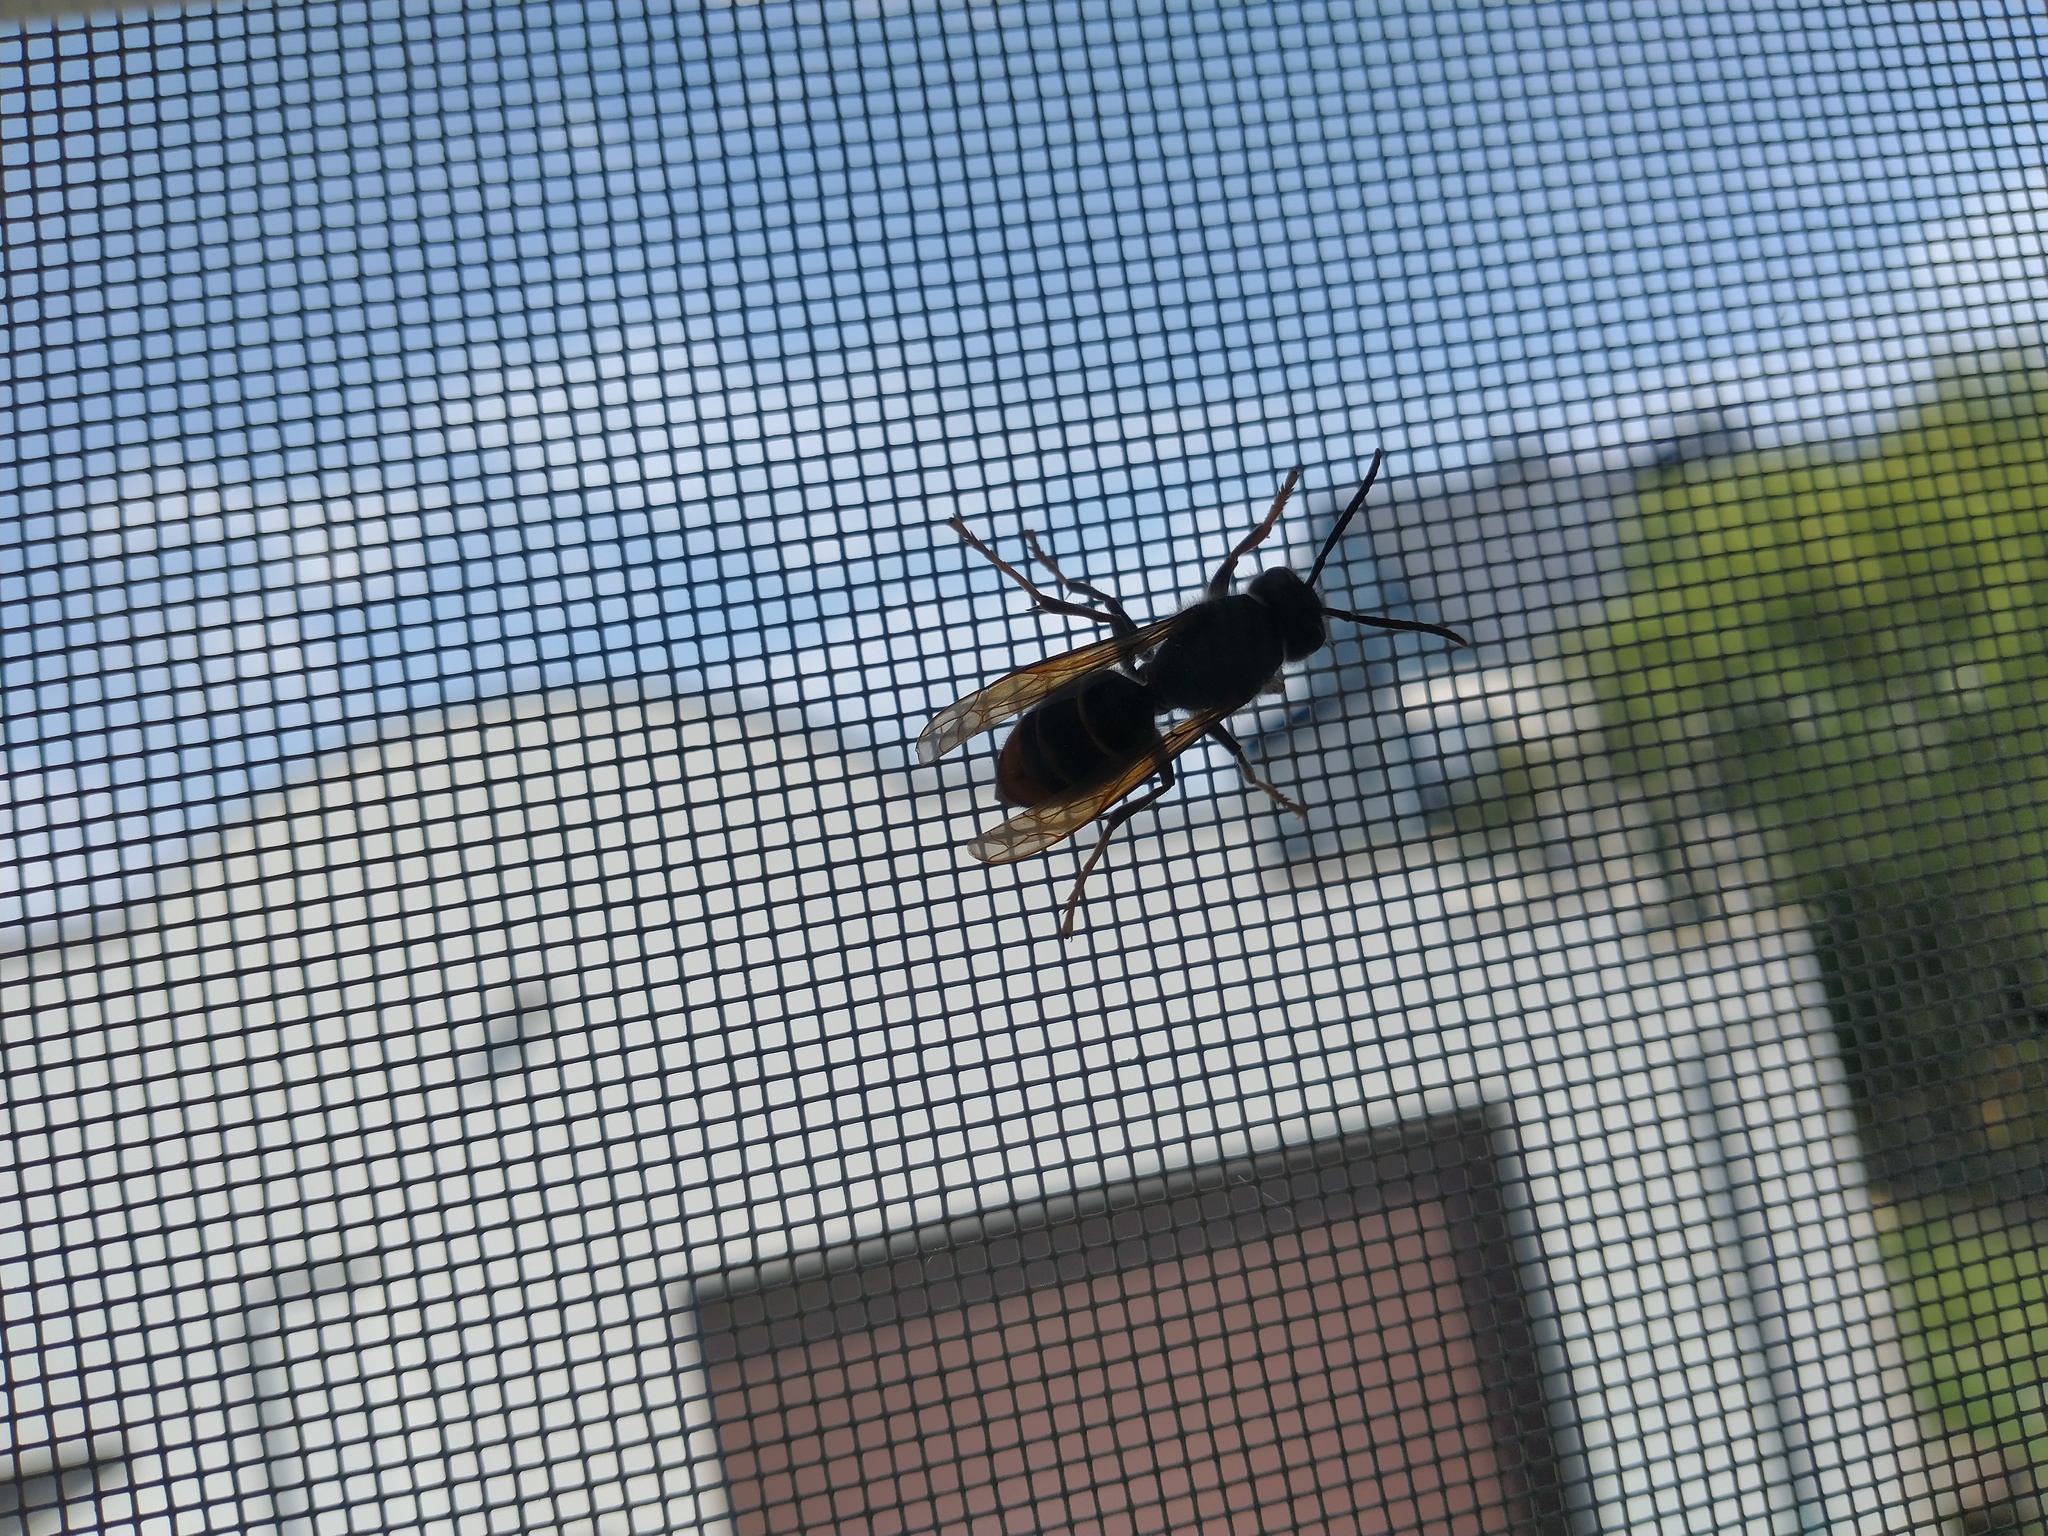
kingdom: Animalia
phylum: Arthropoda
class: Insecta
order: Hymenoptera
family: Vespidae
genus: Vespa
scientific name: Vespa velutina
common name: Asian hornet
